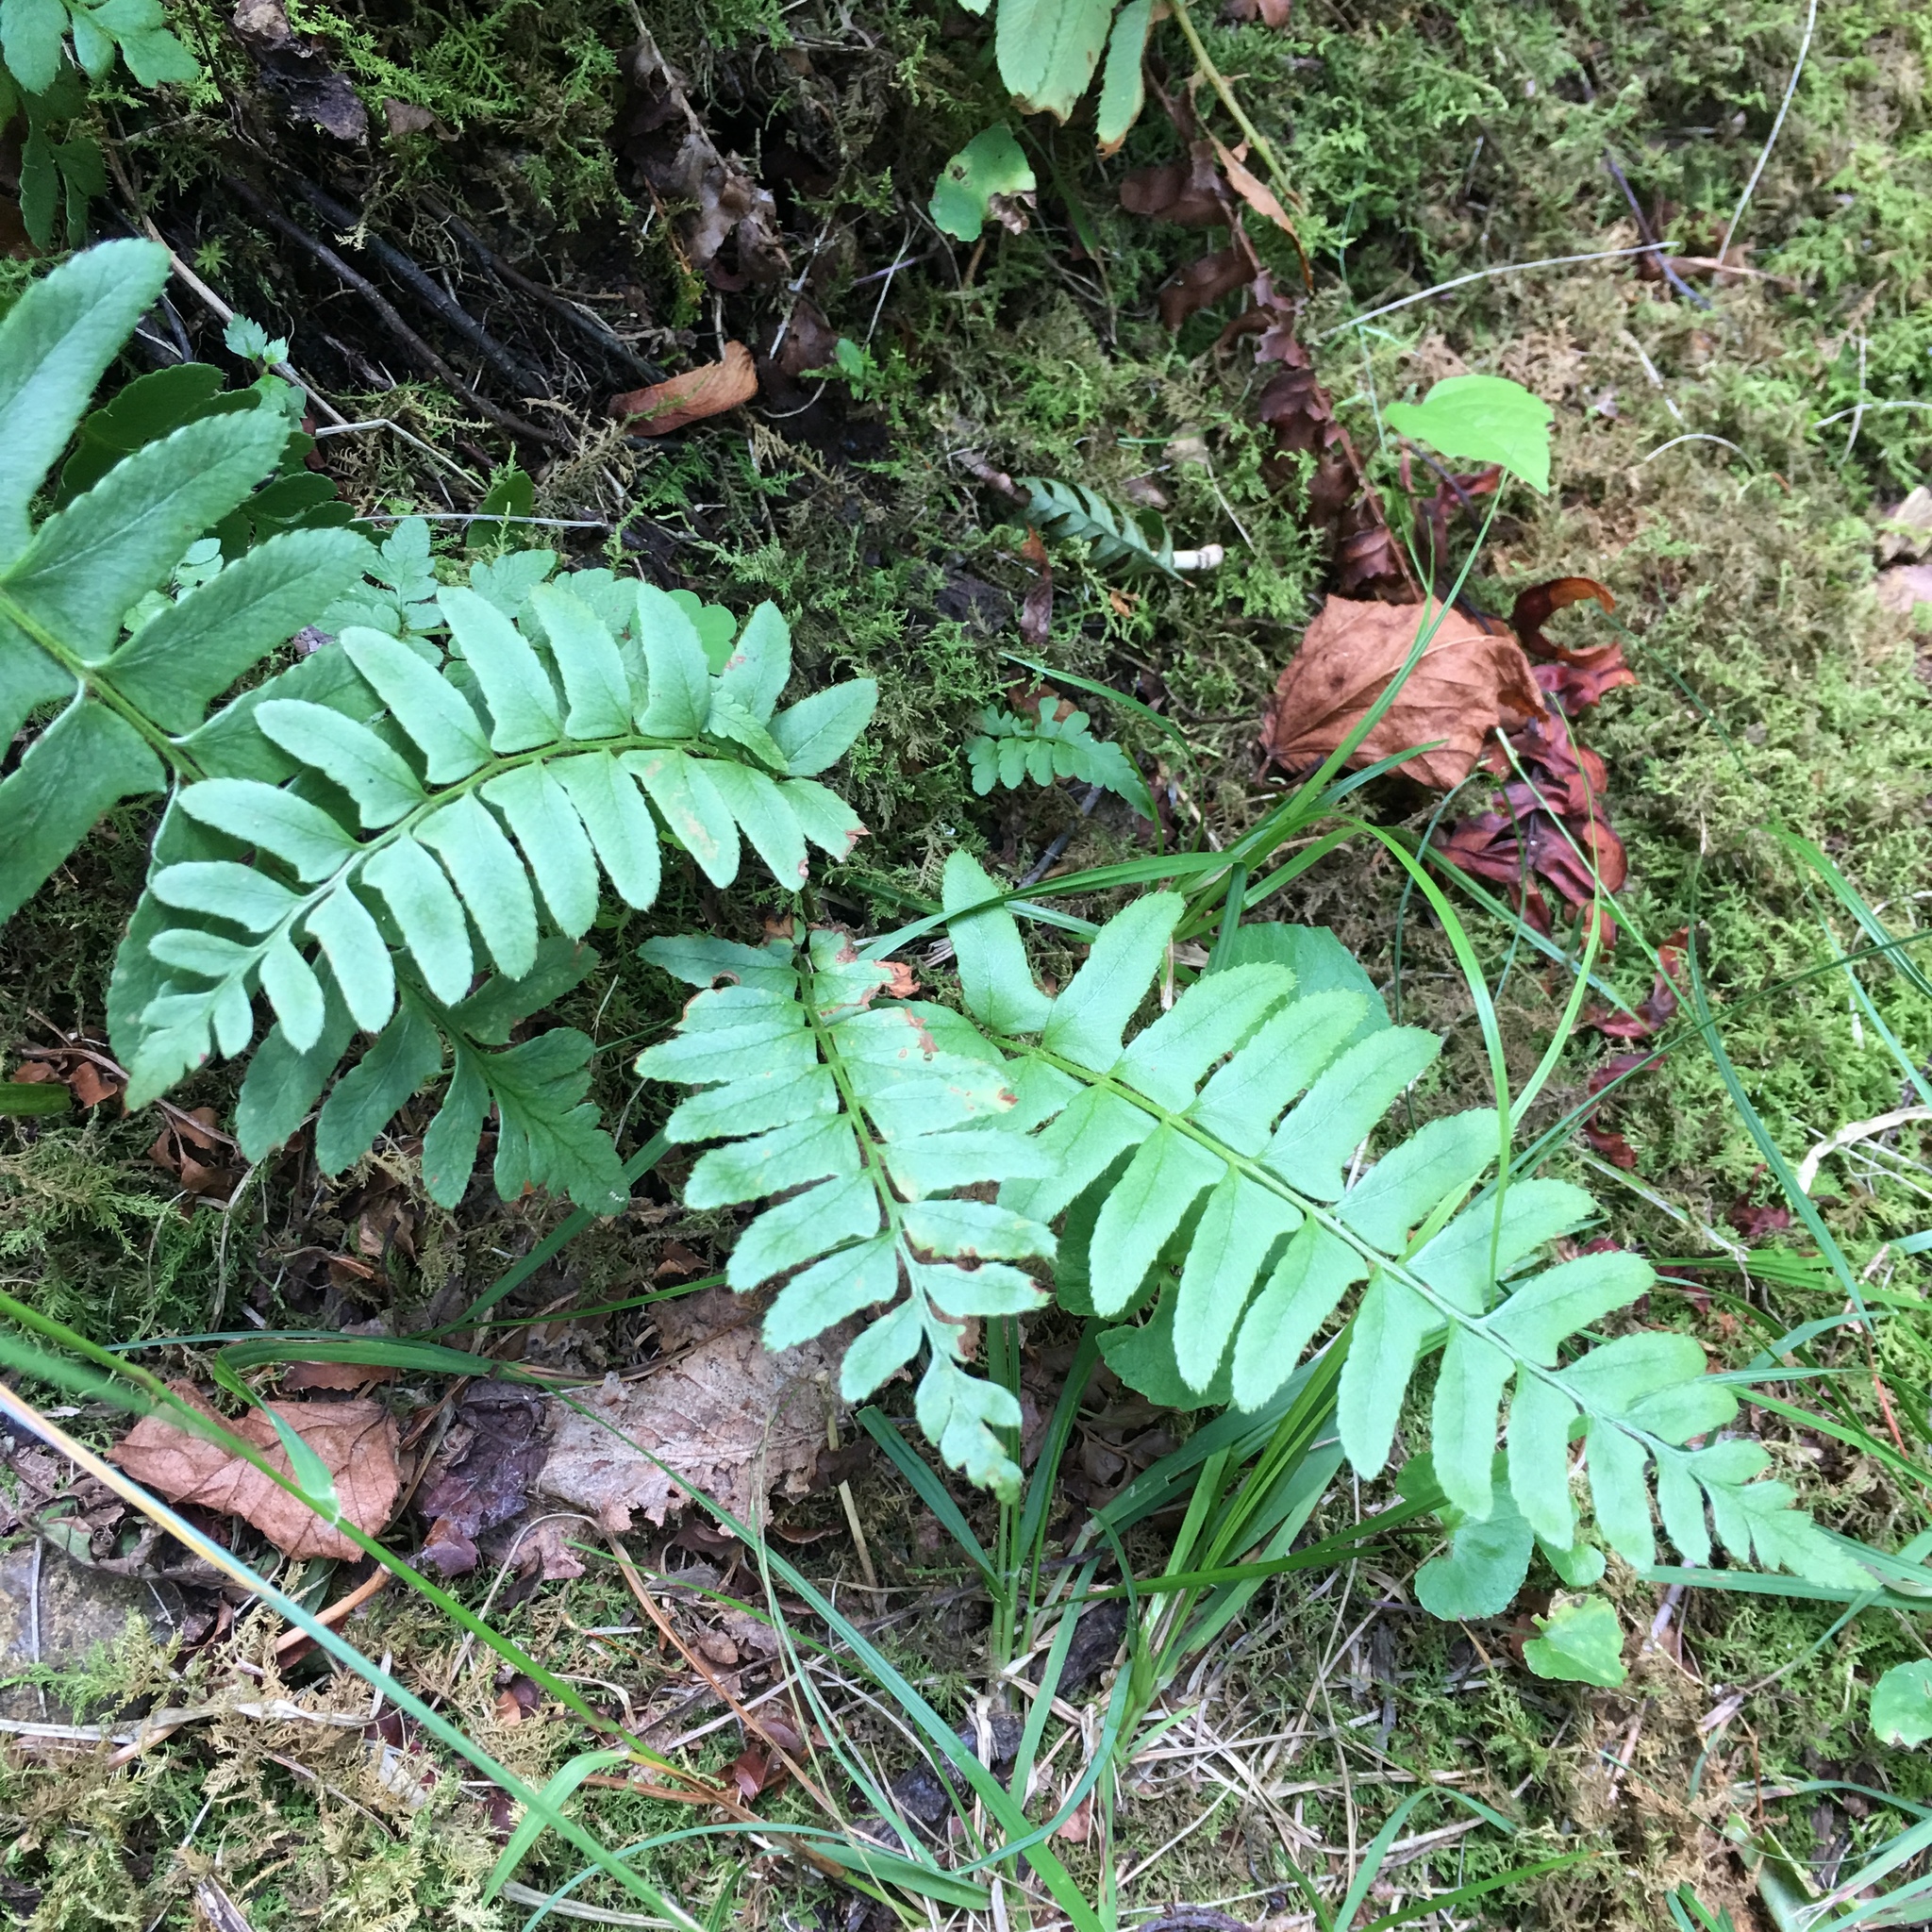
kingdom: Plantae
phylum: Tracheophyta
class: Polypodiopsida
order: Polypodiales
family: Dryopteridaceae
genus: Polystichum
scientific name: Polystichum acrostichoides
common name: Christmas fern
